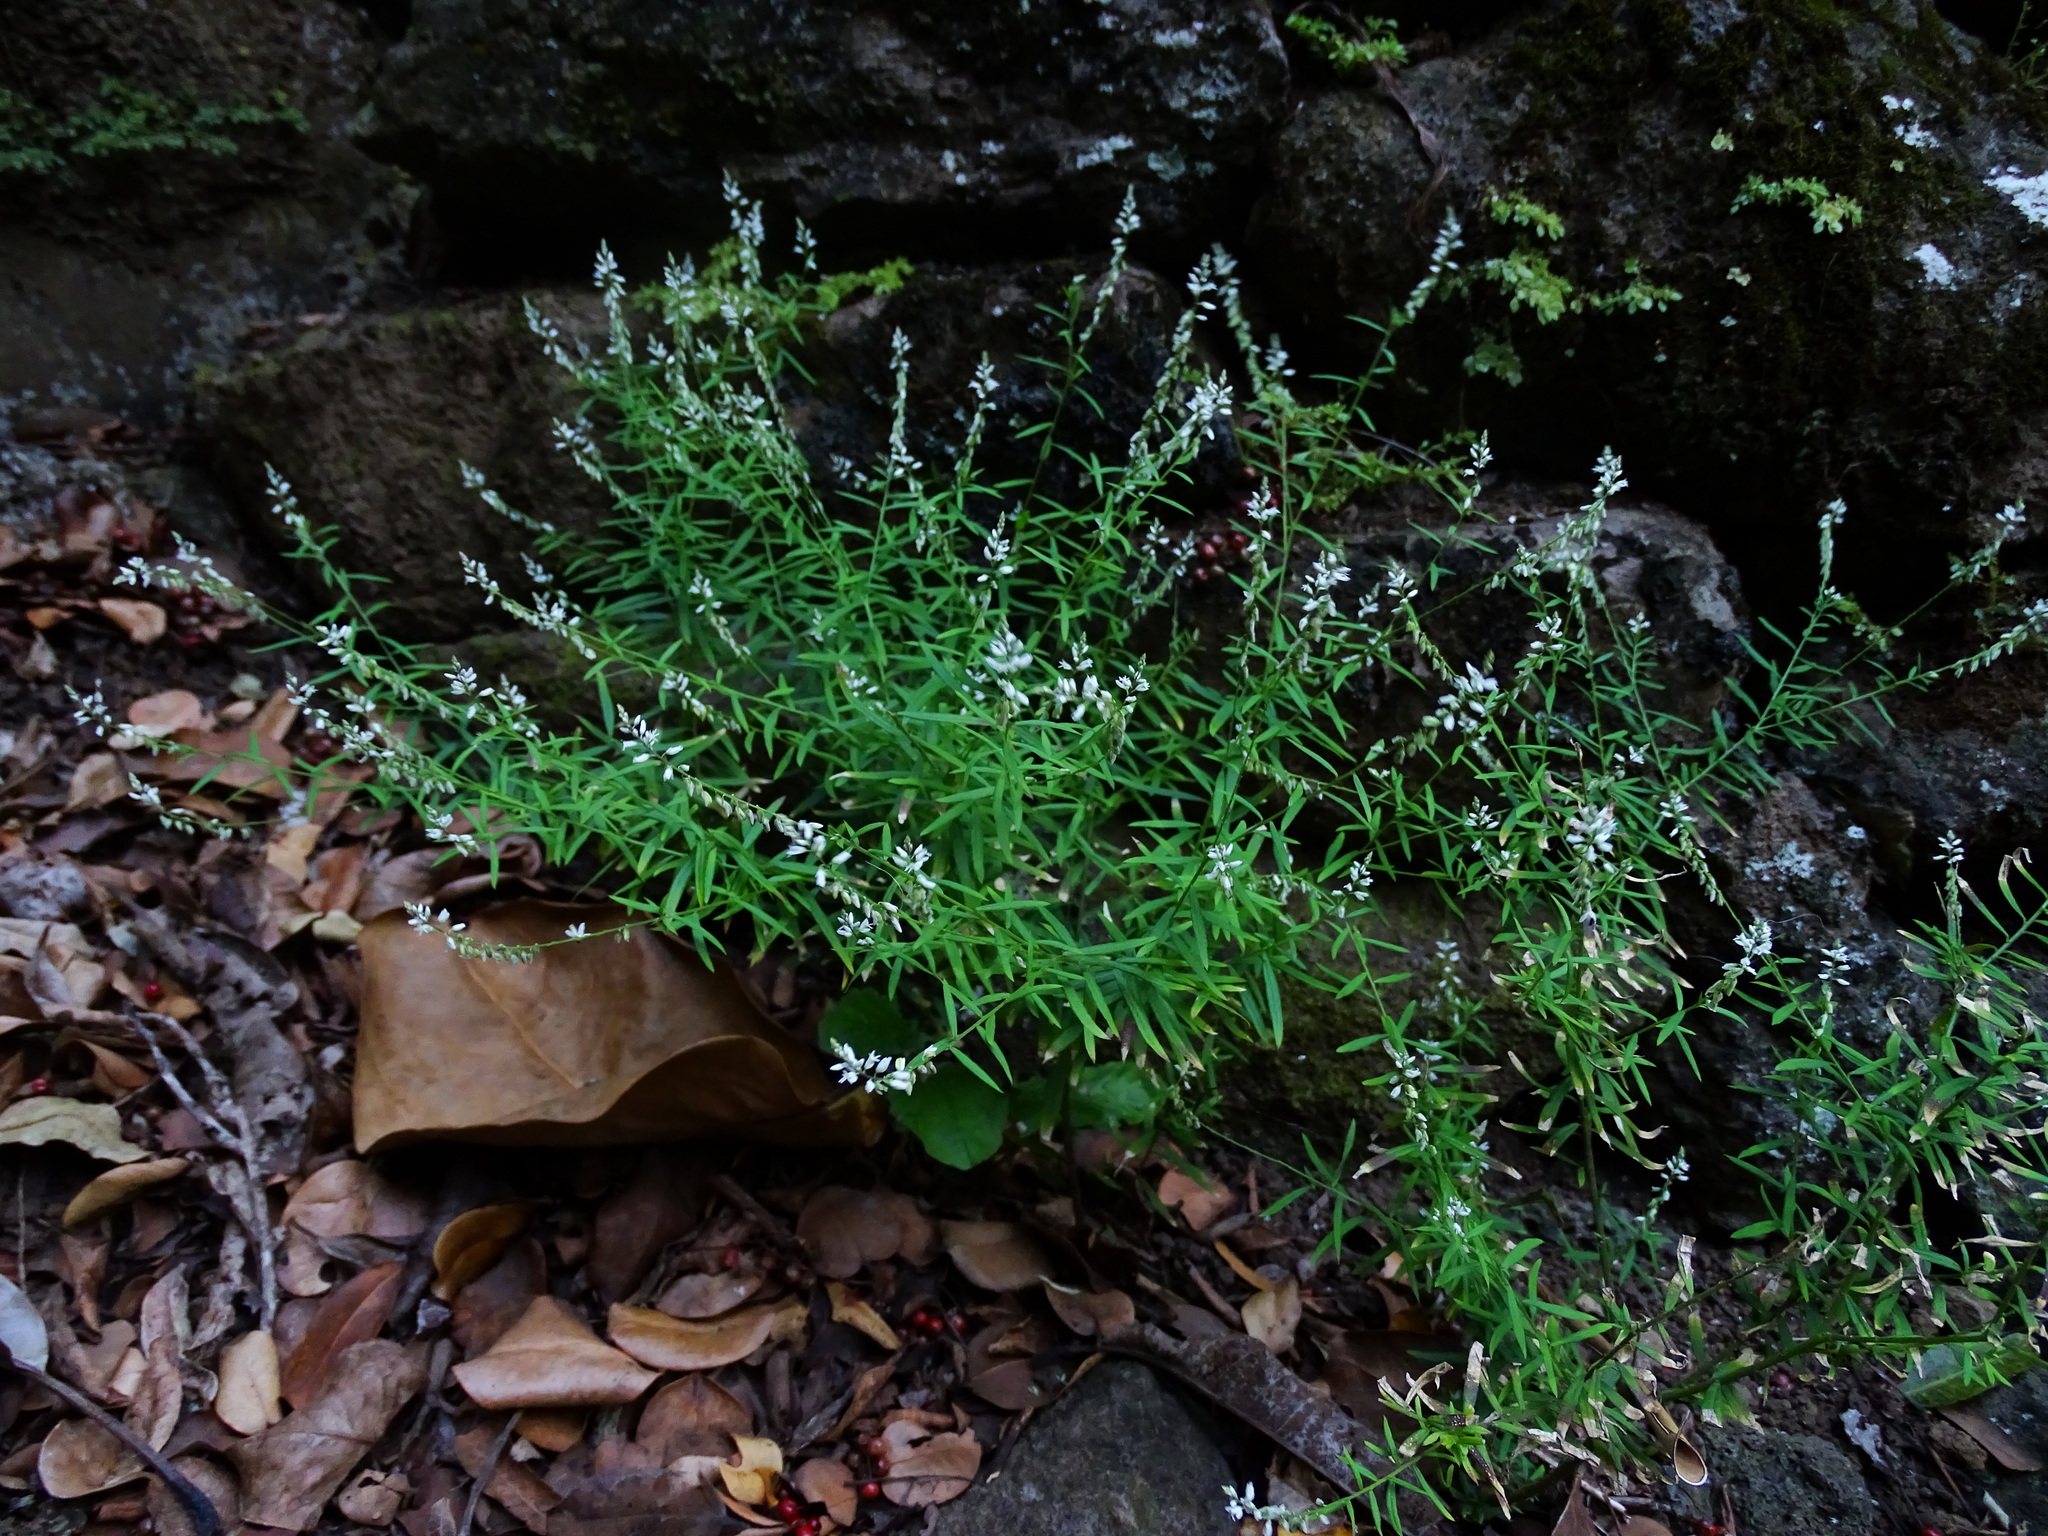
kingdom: Plantae
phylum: Tracheophyta
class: Magnoliopsida
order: Fabales
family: Polygalaceae
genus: Polygala
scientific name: Polygala paniculata
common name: Orosne
